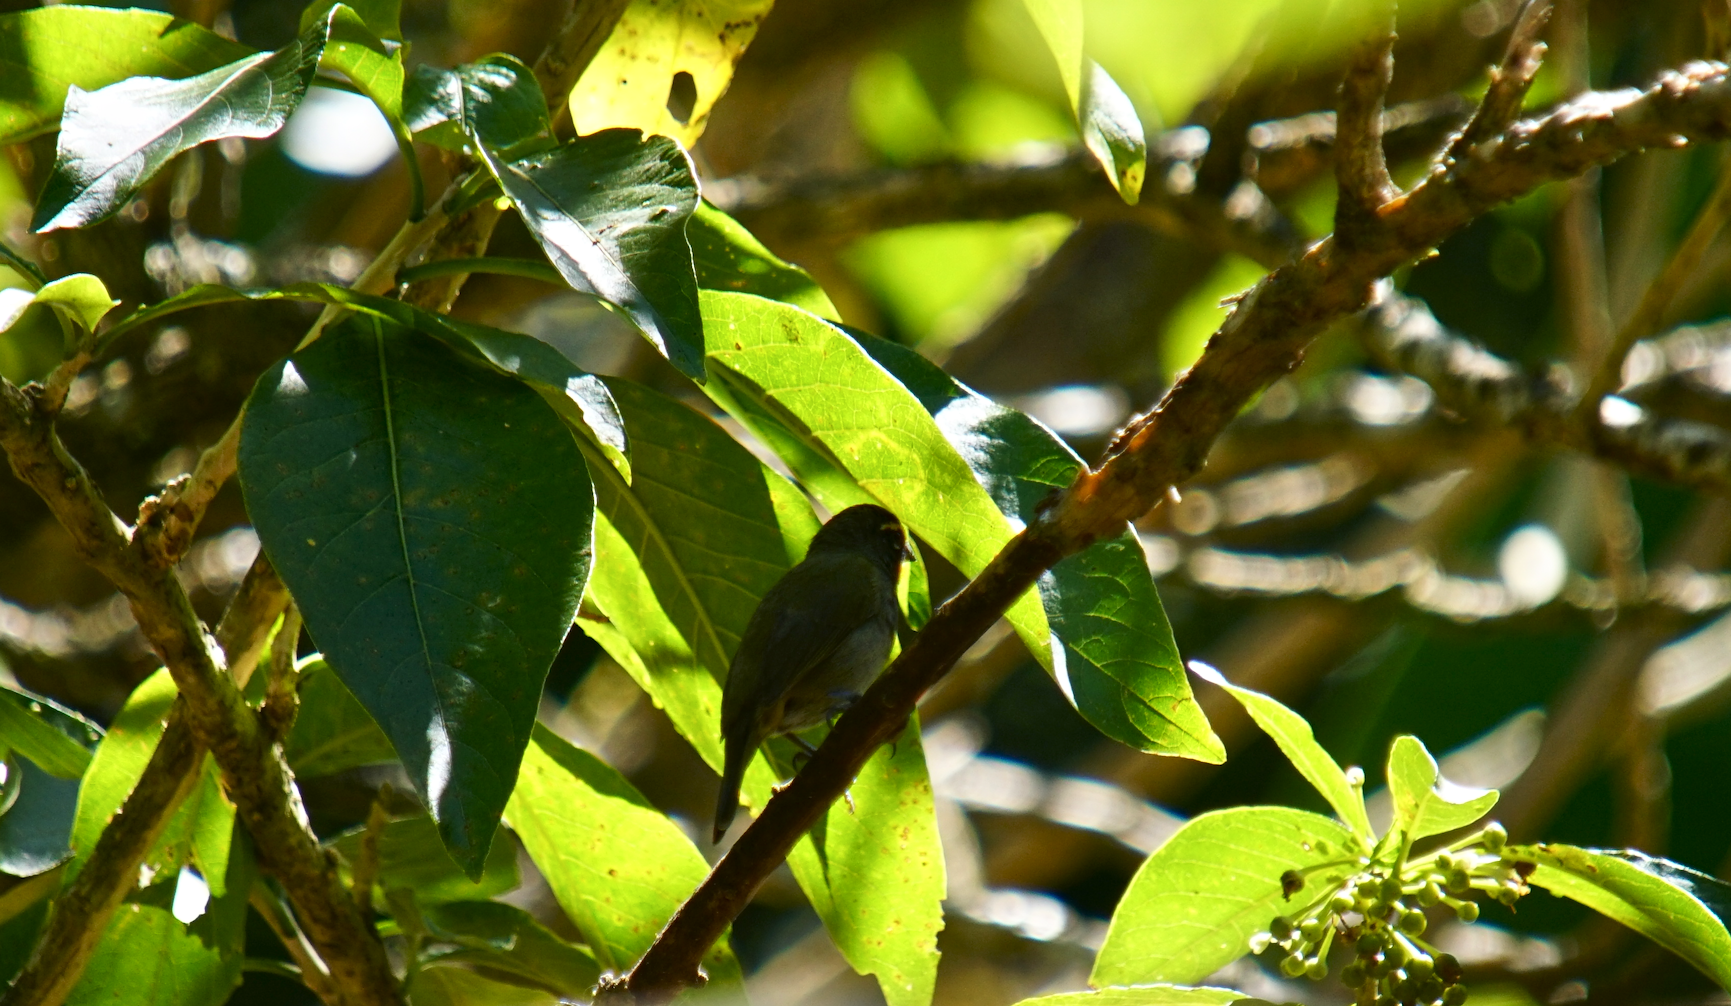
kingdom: Animalia
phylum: Chordata
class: Aves
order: Passeriformes
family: Thraupidae
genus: Tiaris
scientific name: Tiaris olivaceus
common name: Yellow-faced grassquit
